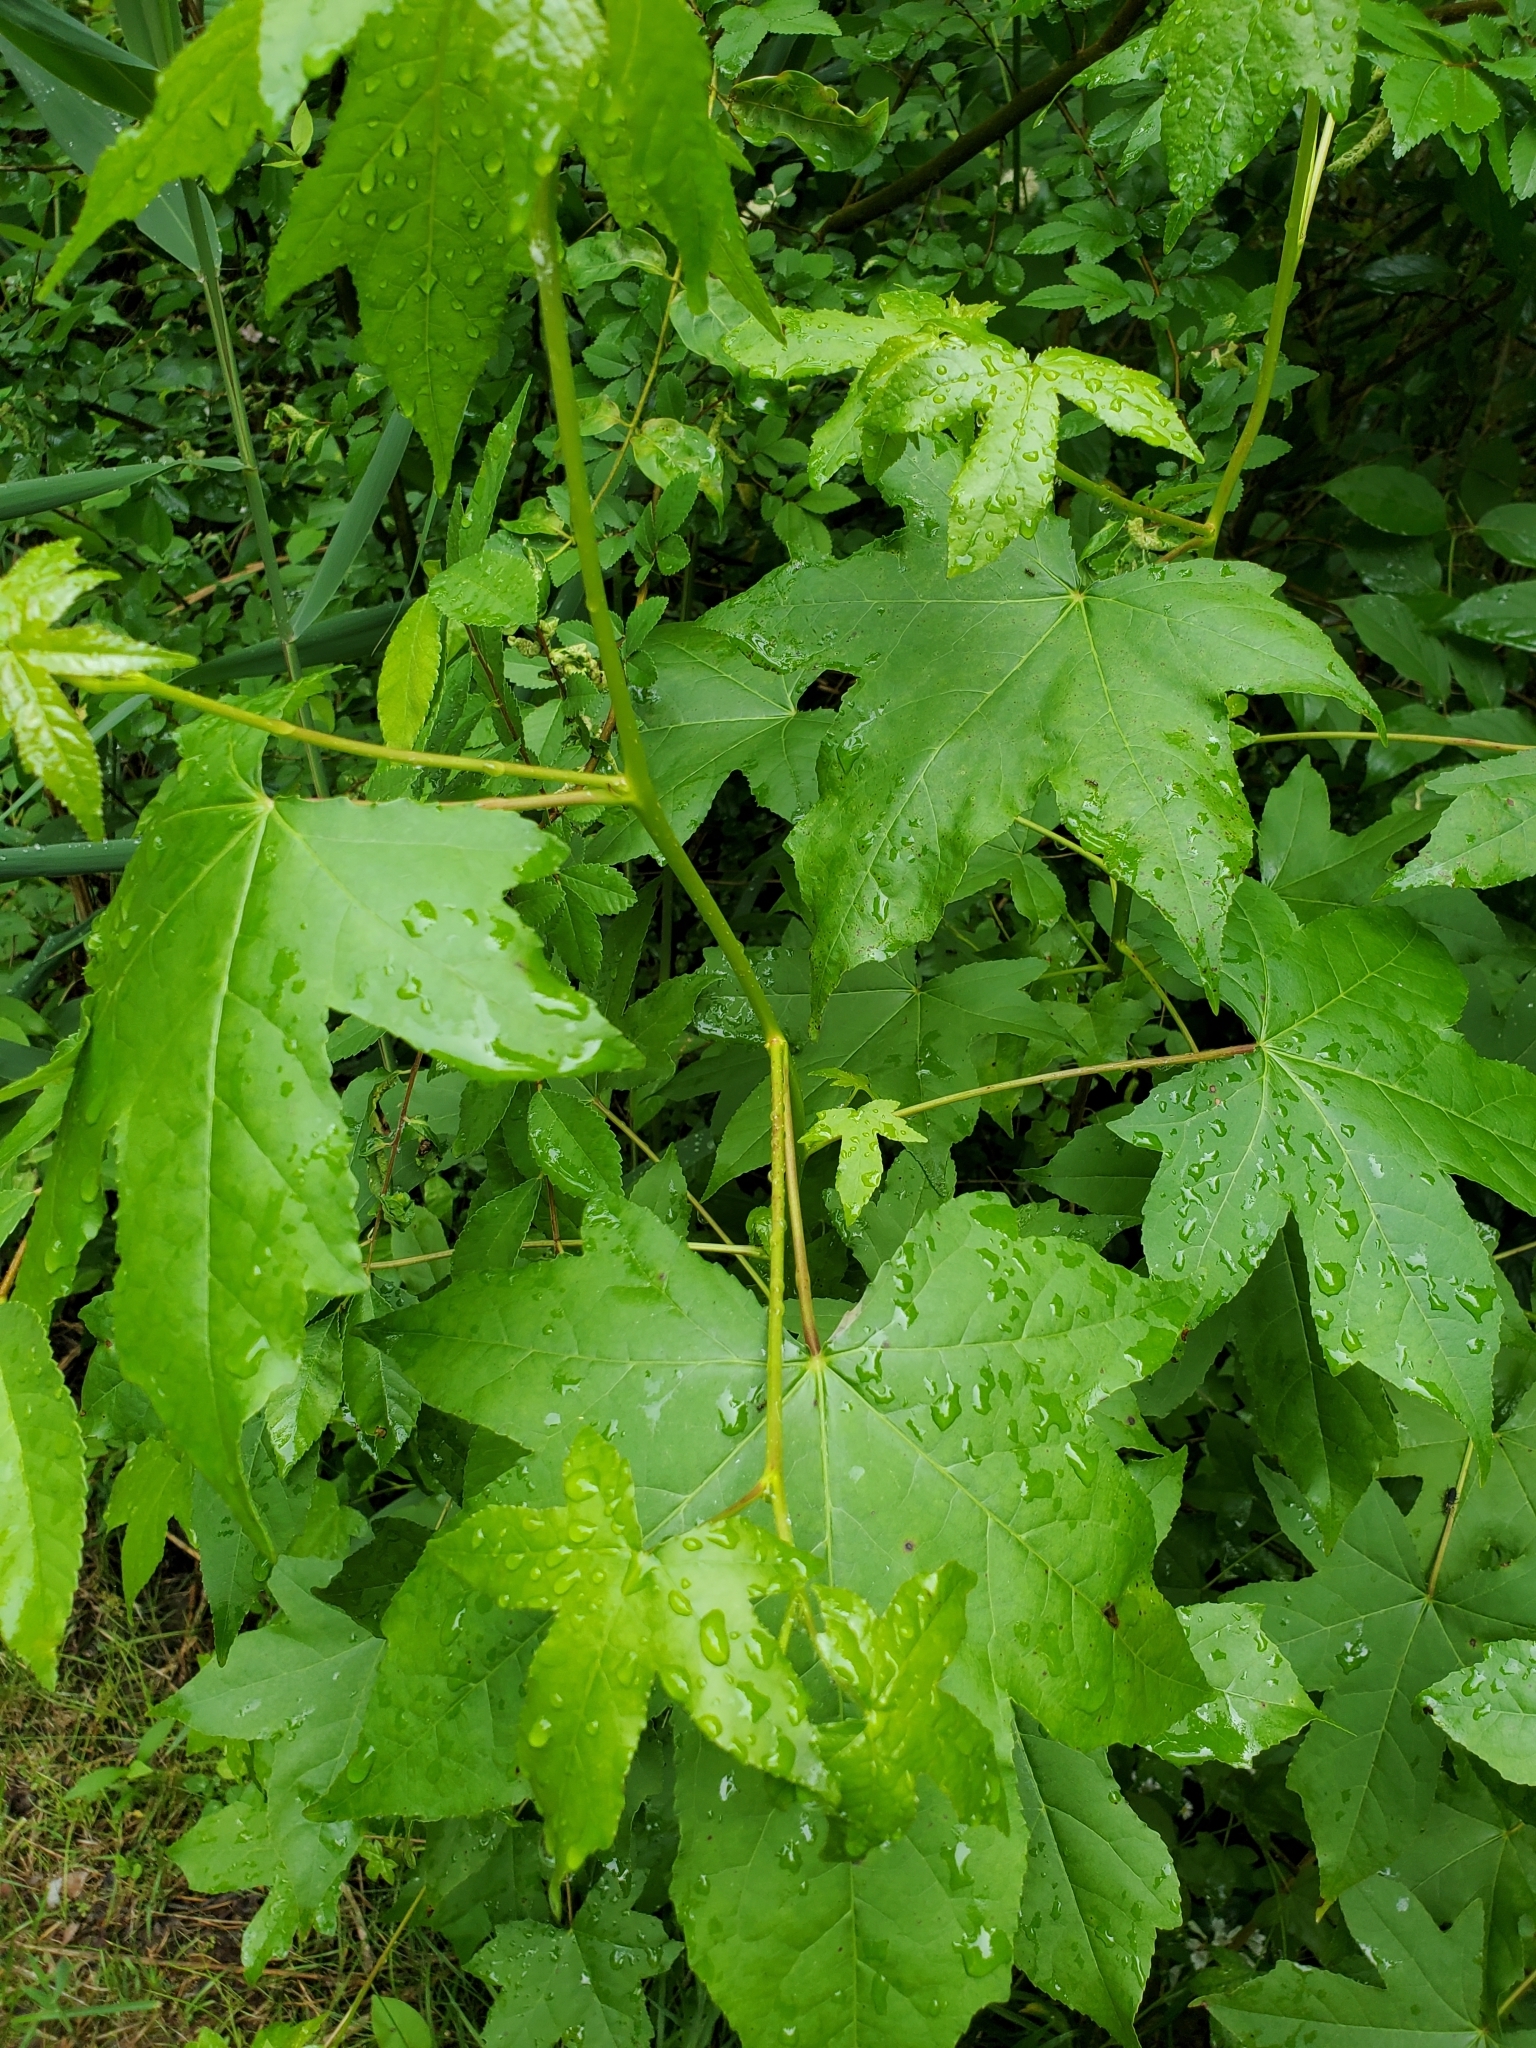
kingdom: Plantae
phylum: Tracheophyta
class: Magnoliopsida
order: Saxifragales
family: Altingiaceae
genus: Liquidambar
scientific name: Liquidambar styraciflua
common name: Sweet gum
